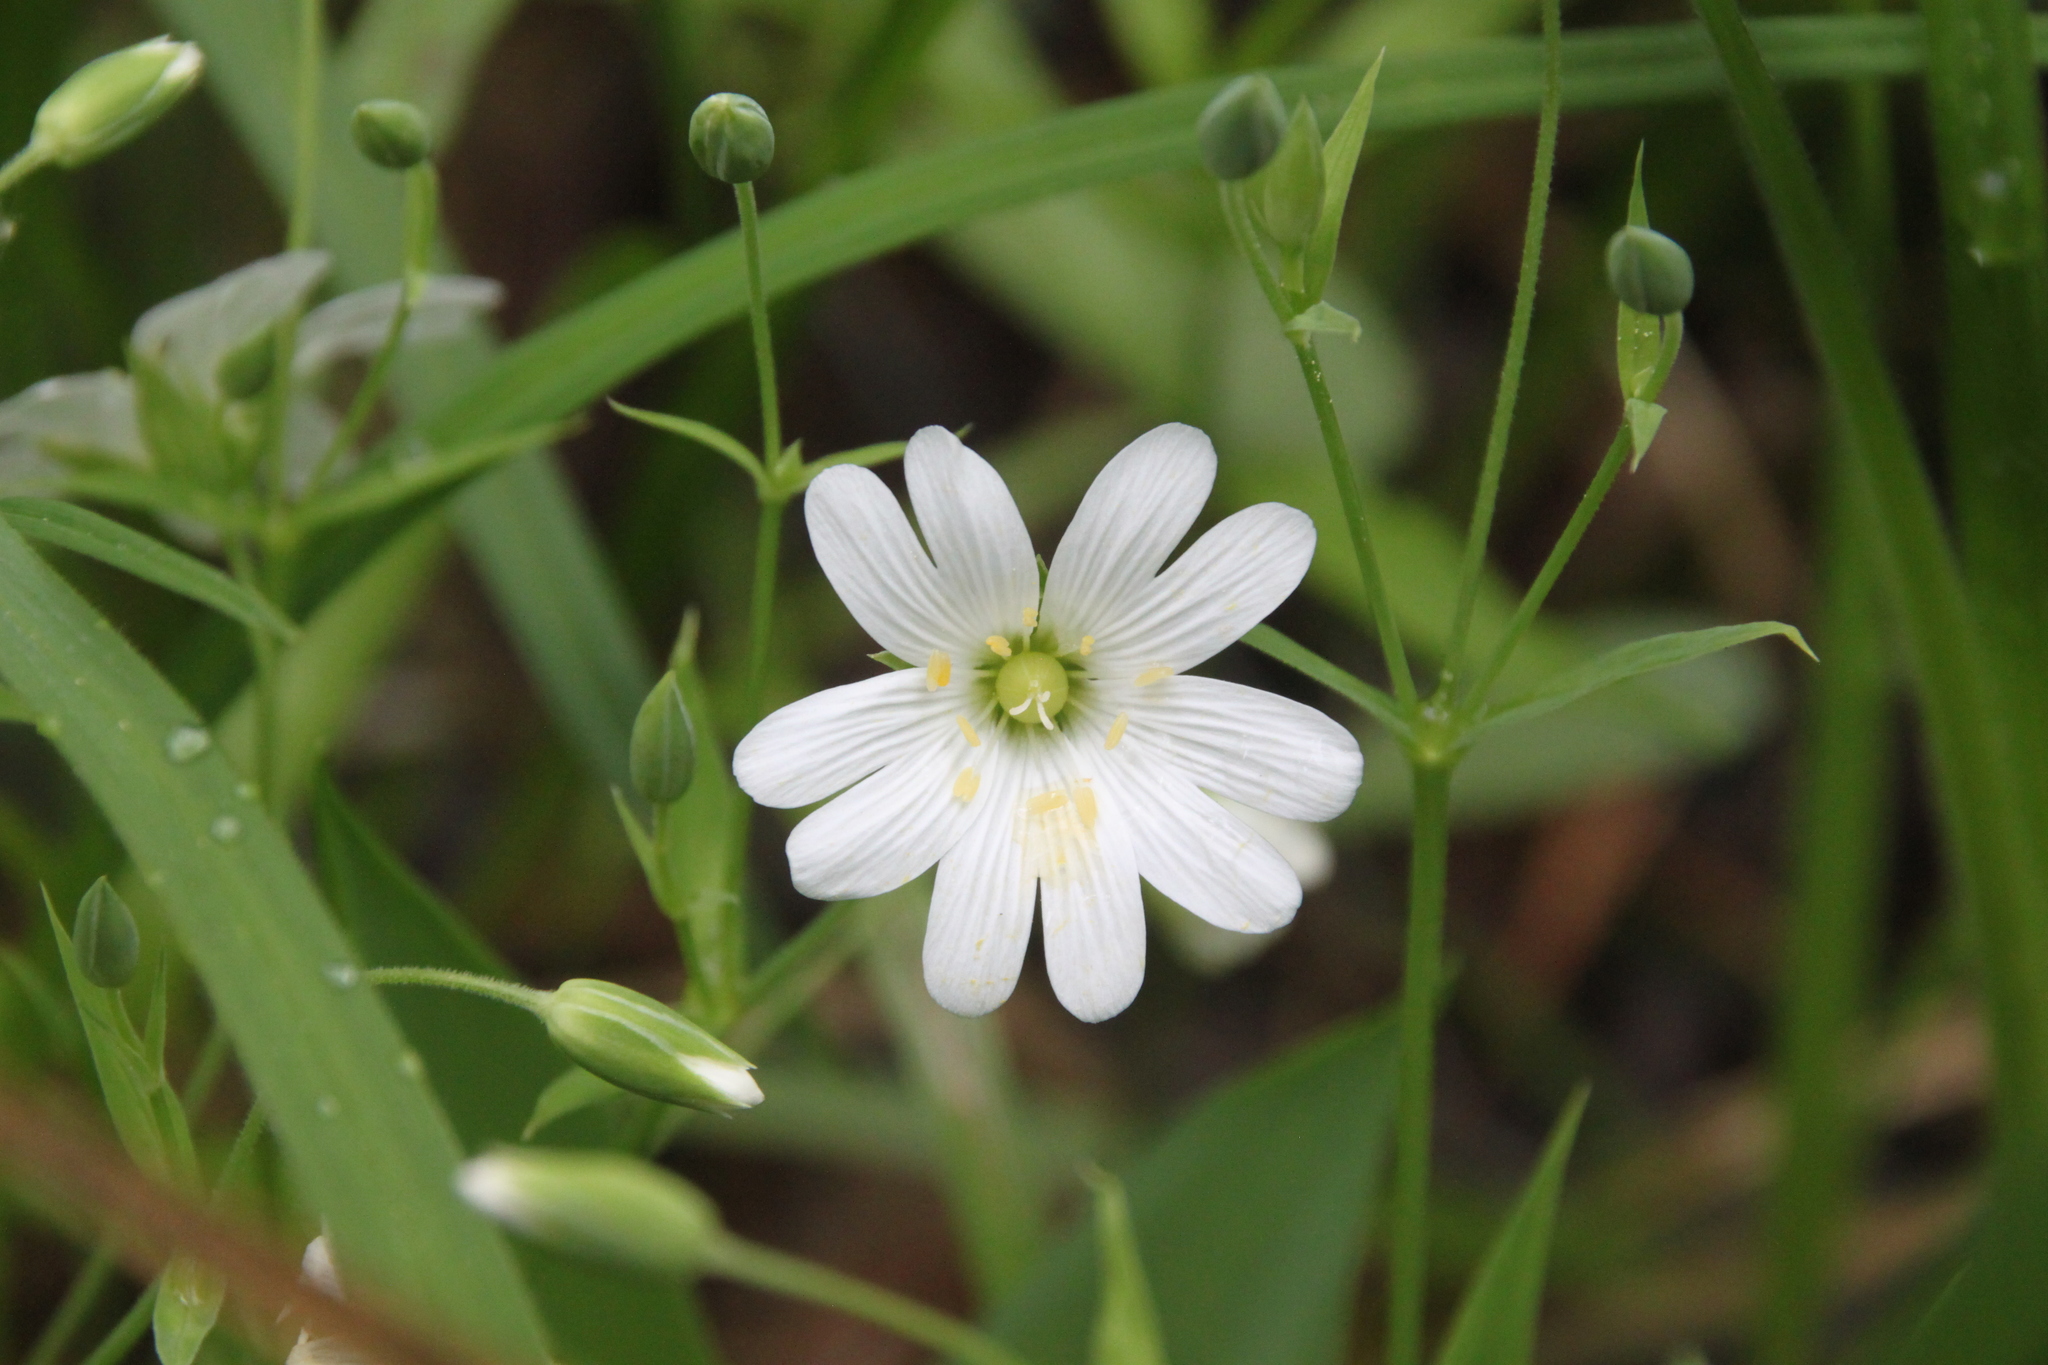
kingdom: Plantae
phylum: Tracheophyta
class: Magnoliopsida
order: Caryophyllales
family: Caryophyllaceae
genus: Rabelera
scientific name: Rabelera holostea
